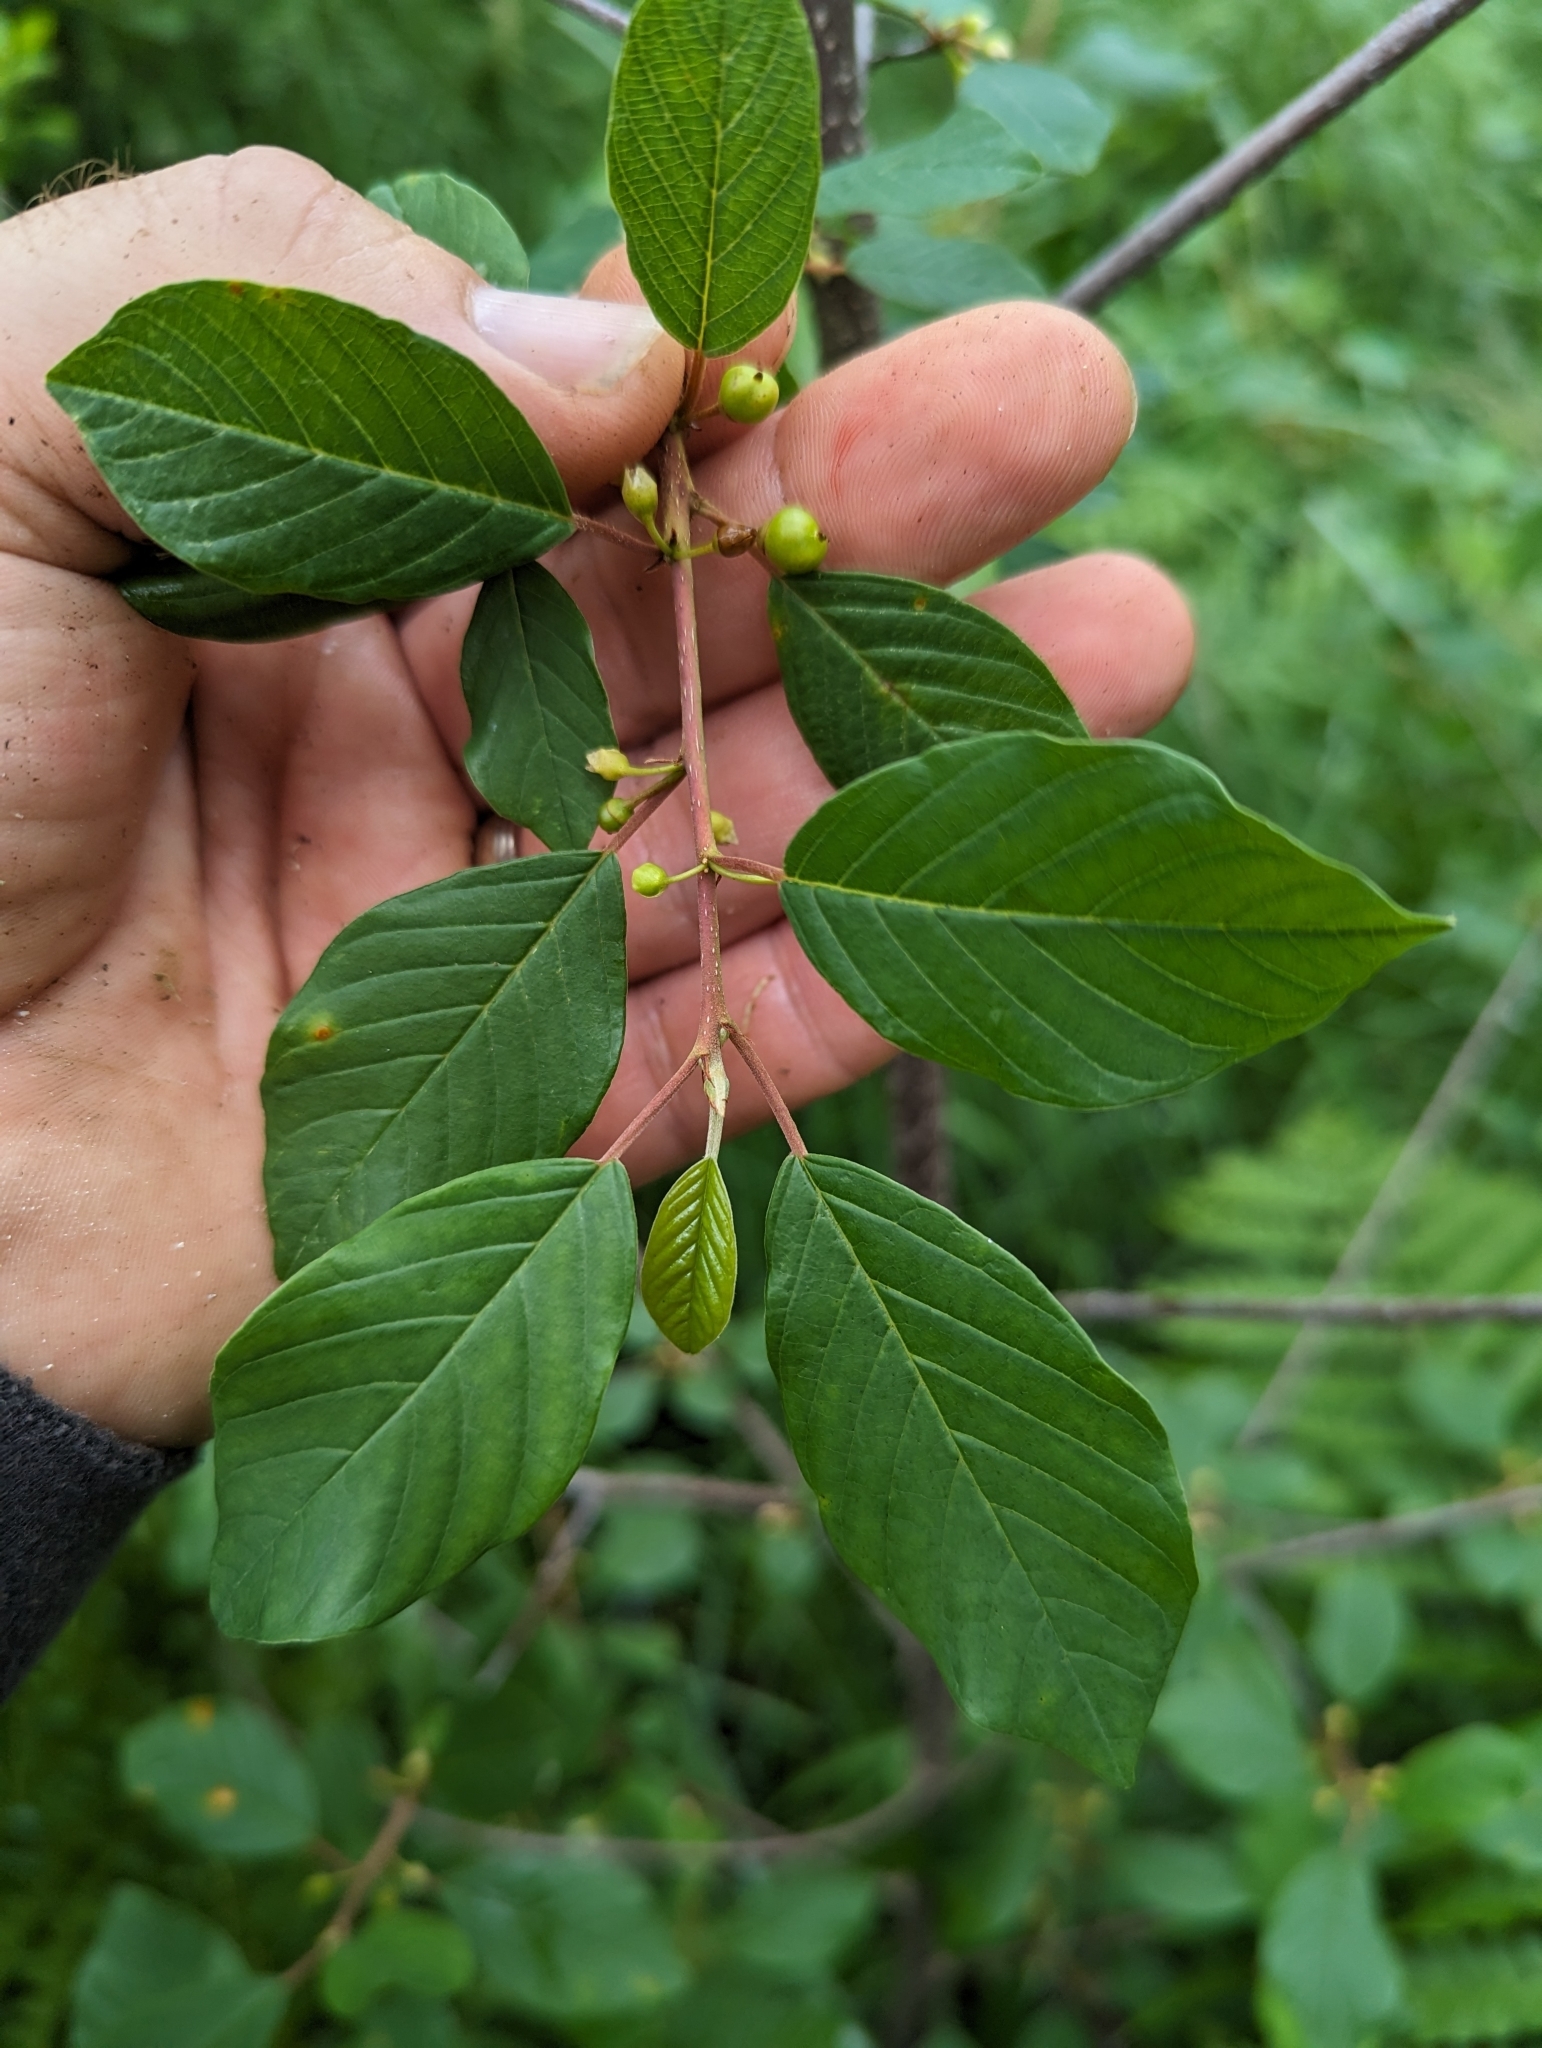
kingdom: Plantae
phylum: Tracheophyta
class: Magnoliopsida
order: Rosales
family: Rhamnaceae
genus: Frangula
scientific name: Frangula alnus
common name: Alder buckthorn
